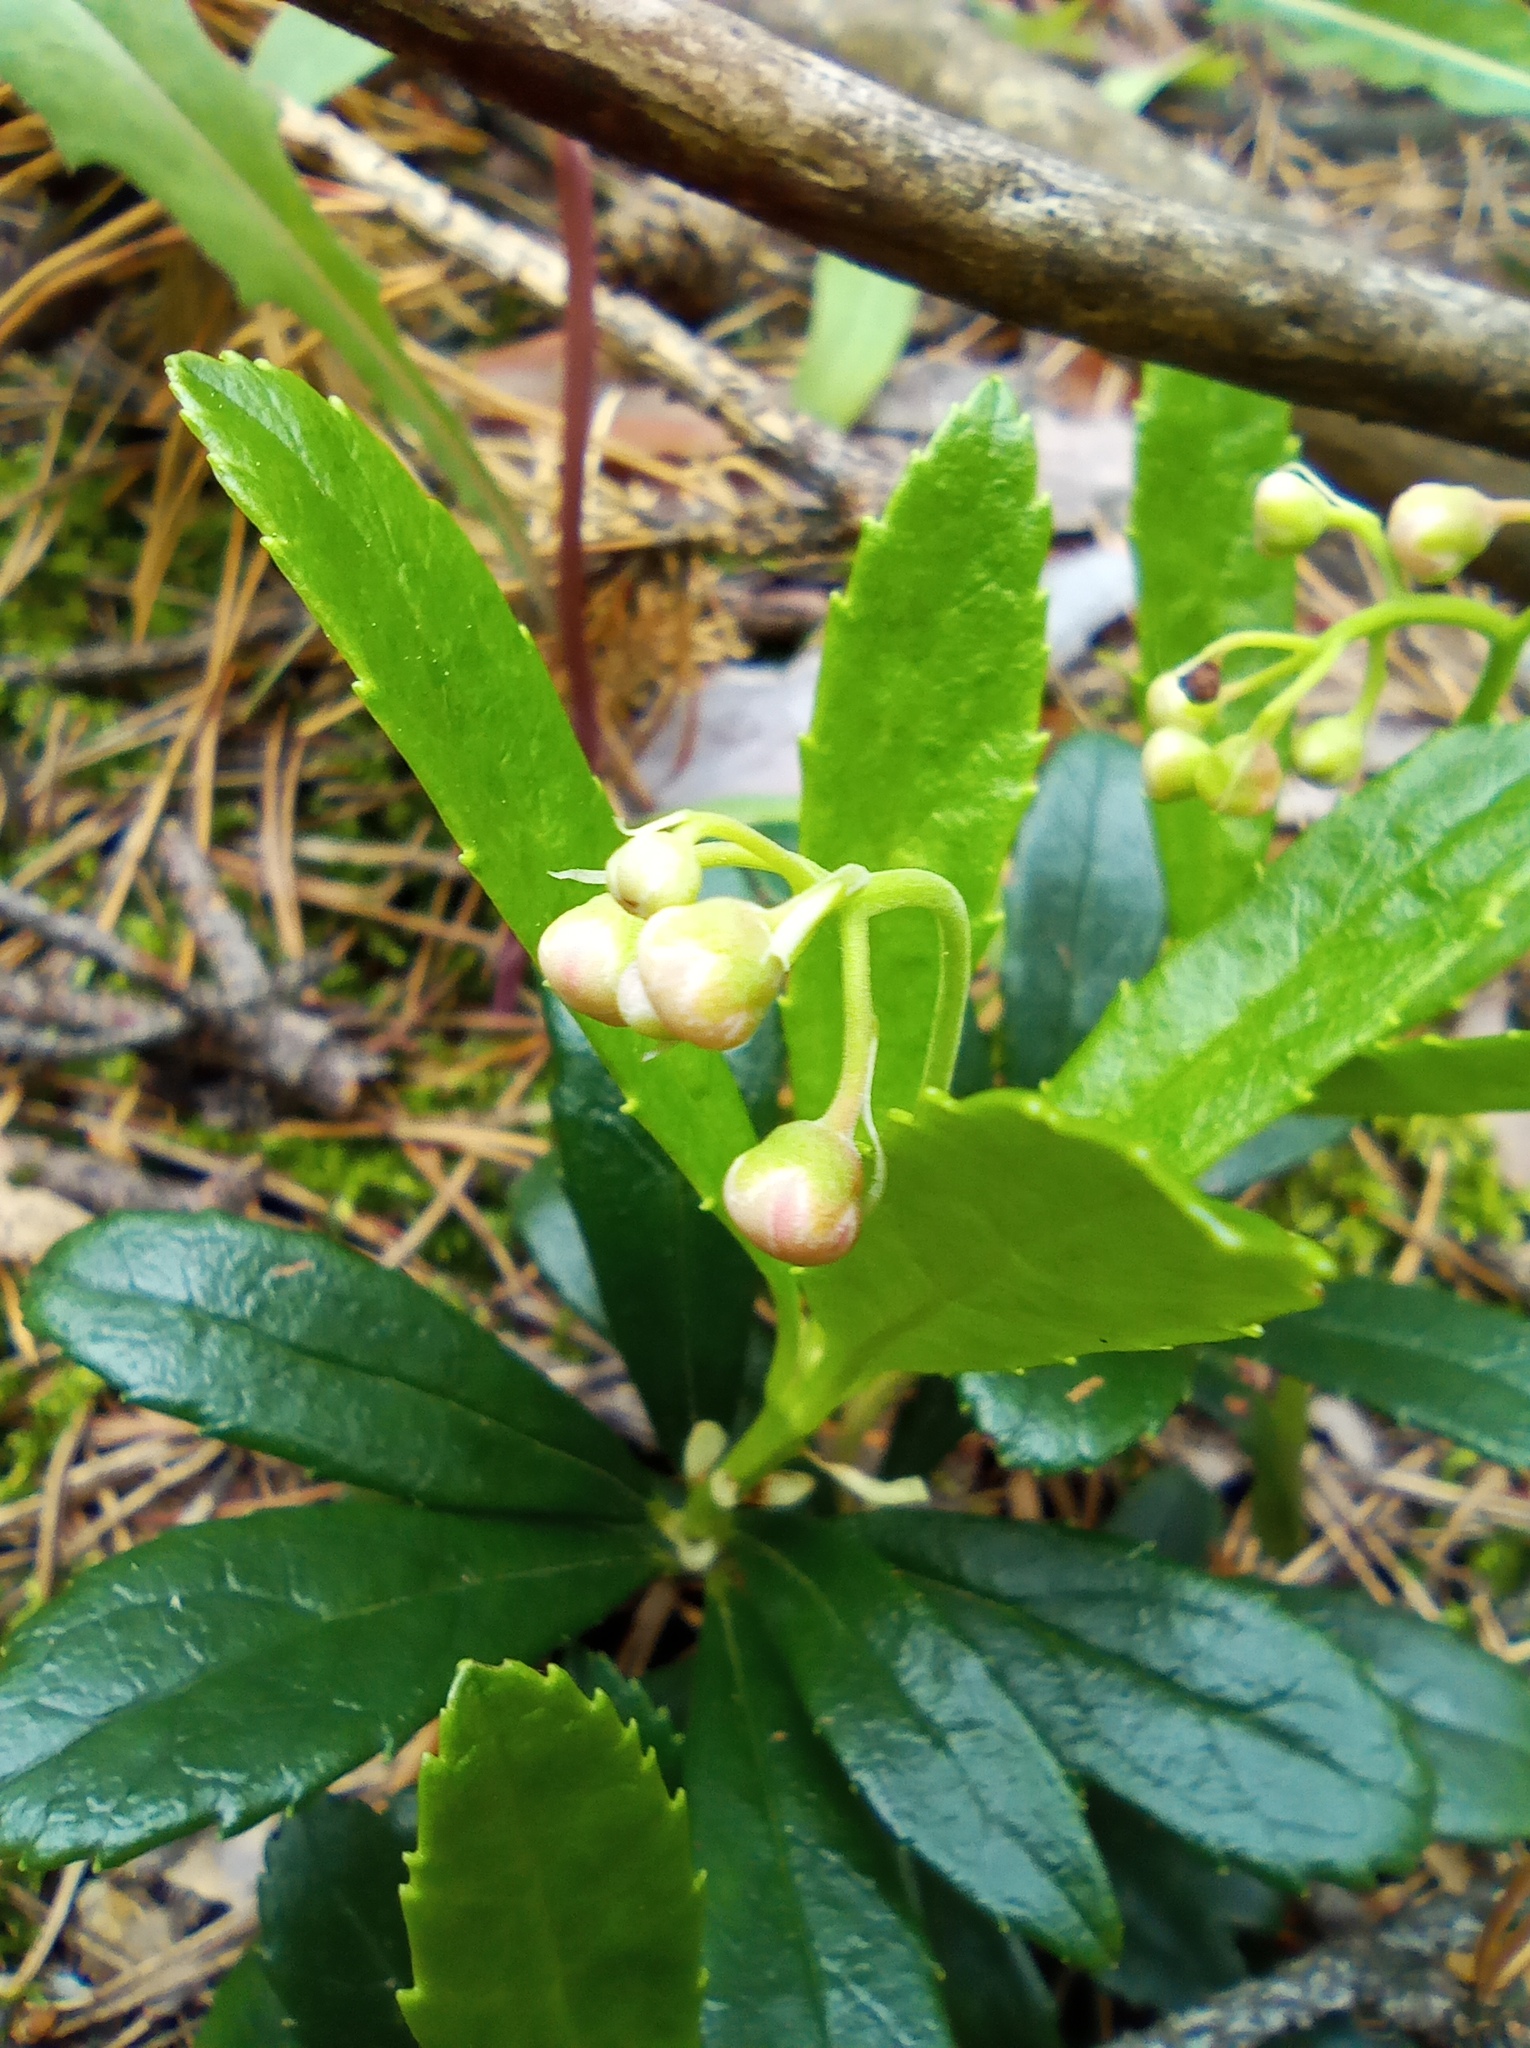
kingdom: Plantae
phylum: Tracheophyta
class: Magnoliopsida
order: Ericales
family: Ericaceae
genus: Chimaphila
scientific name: Chimaphila umbellata
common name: Pipsissewa
